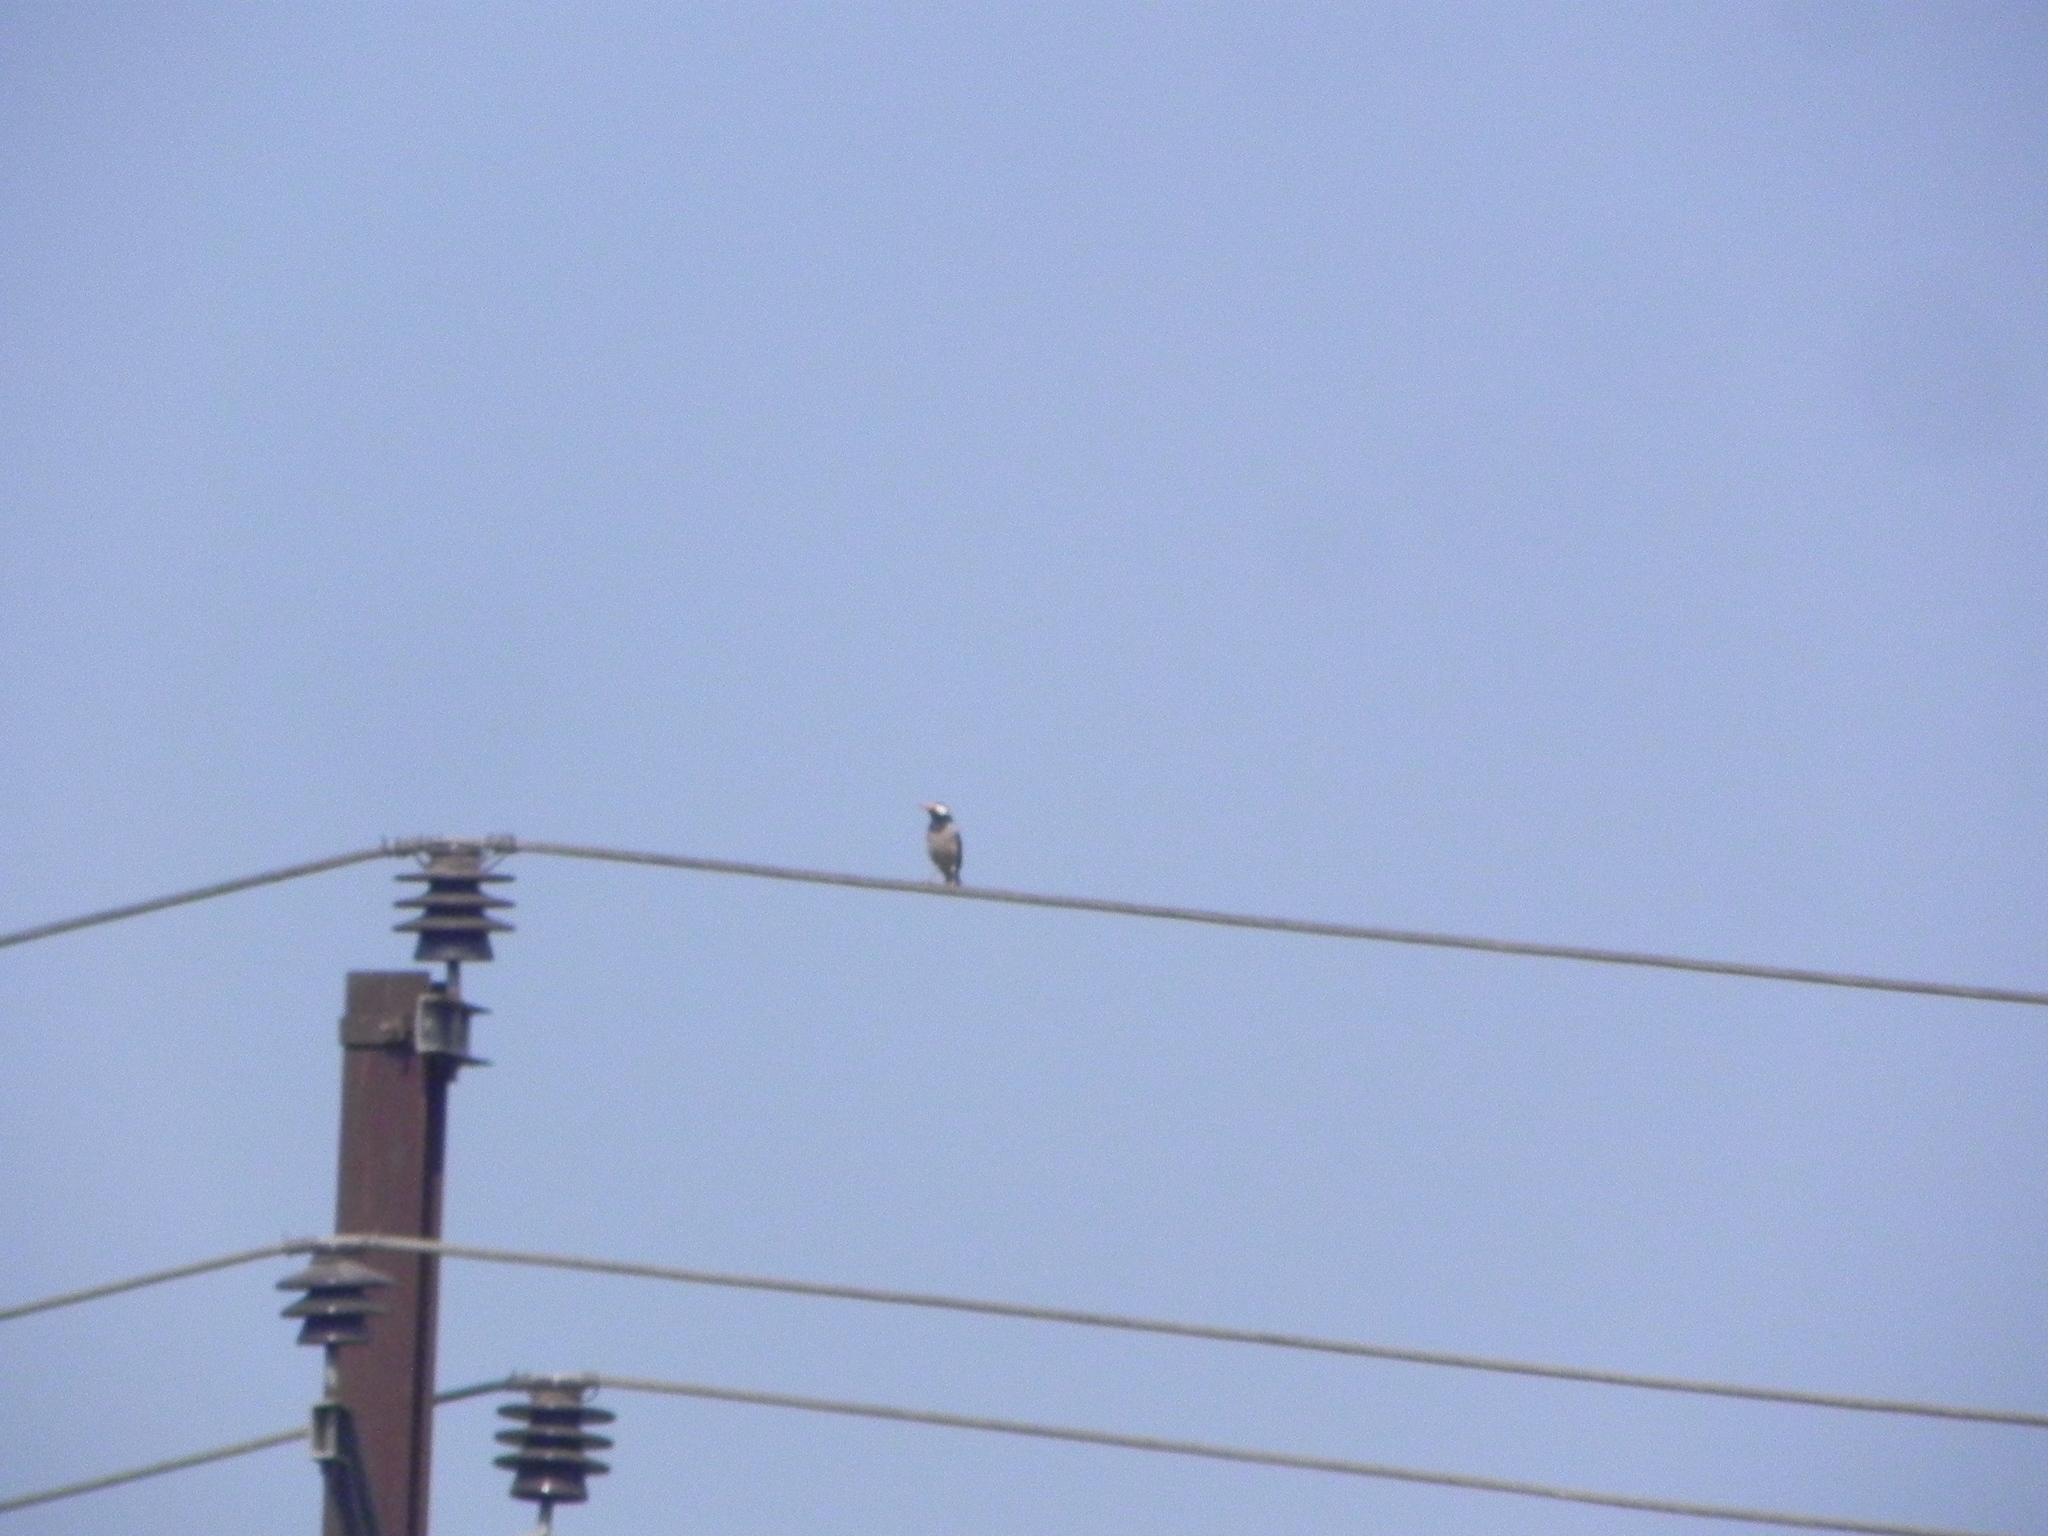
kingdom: Animalia
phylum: Chordata
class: Aves
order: Passeriformes
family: Sturnidae
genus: Gracupica
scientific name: Gracupica contra
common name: Pied myna
